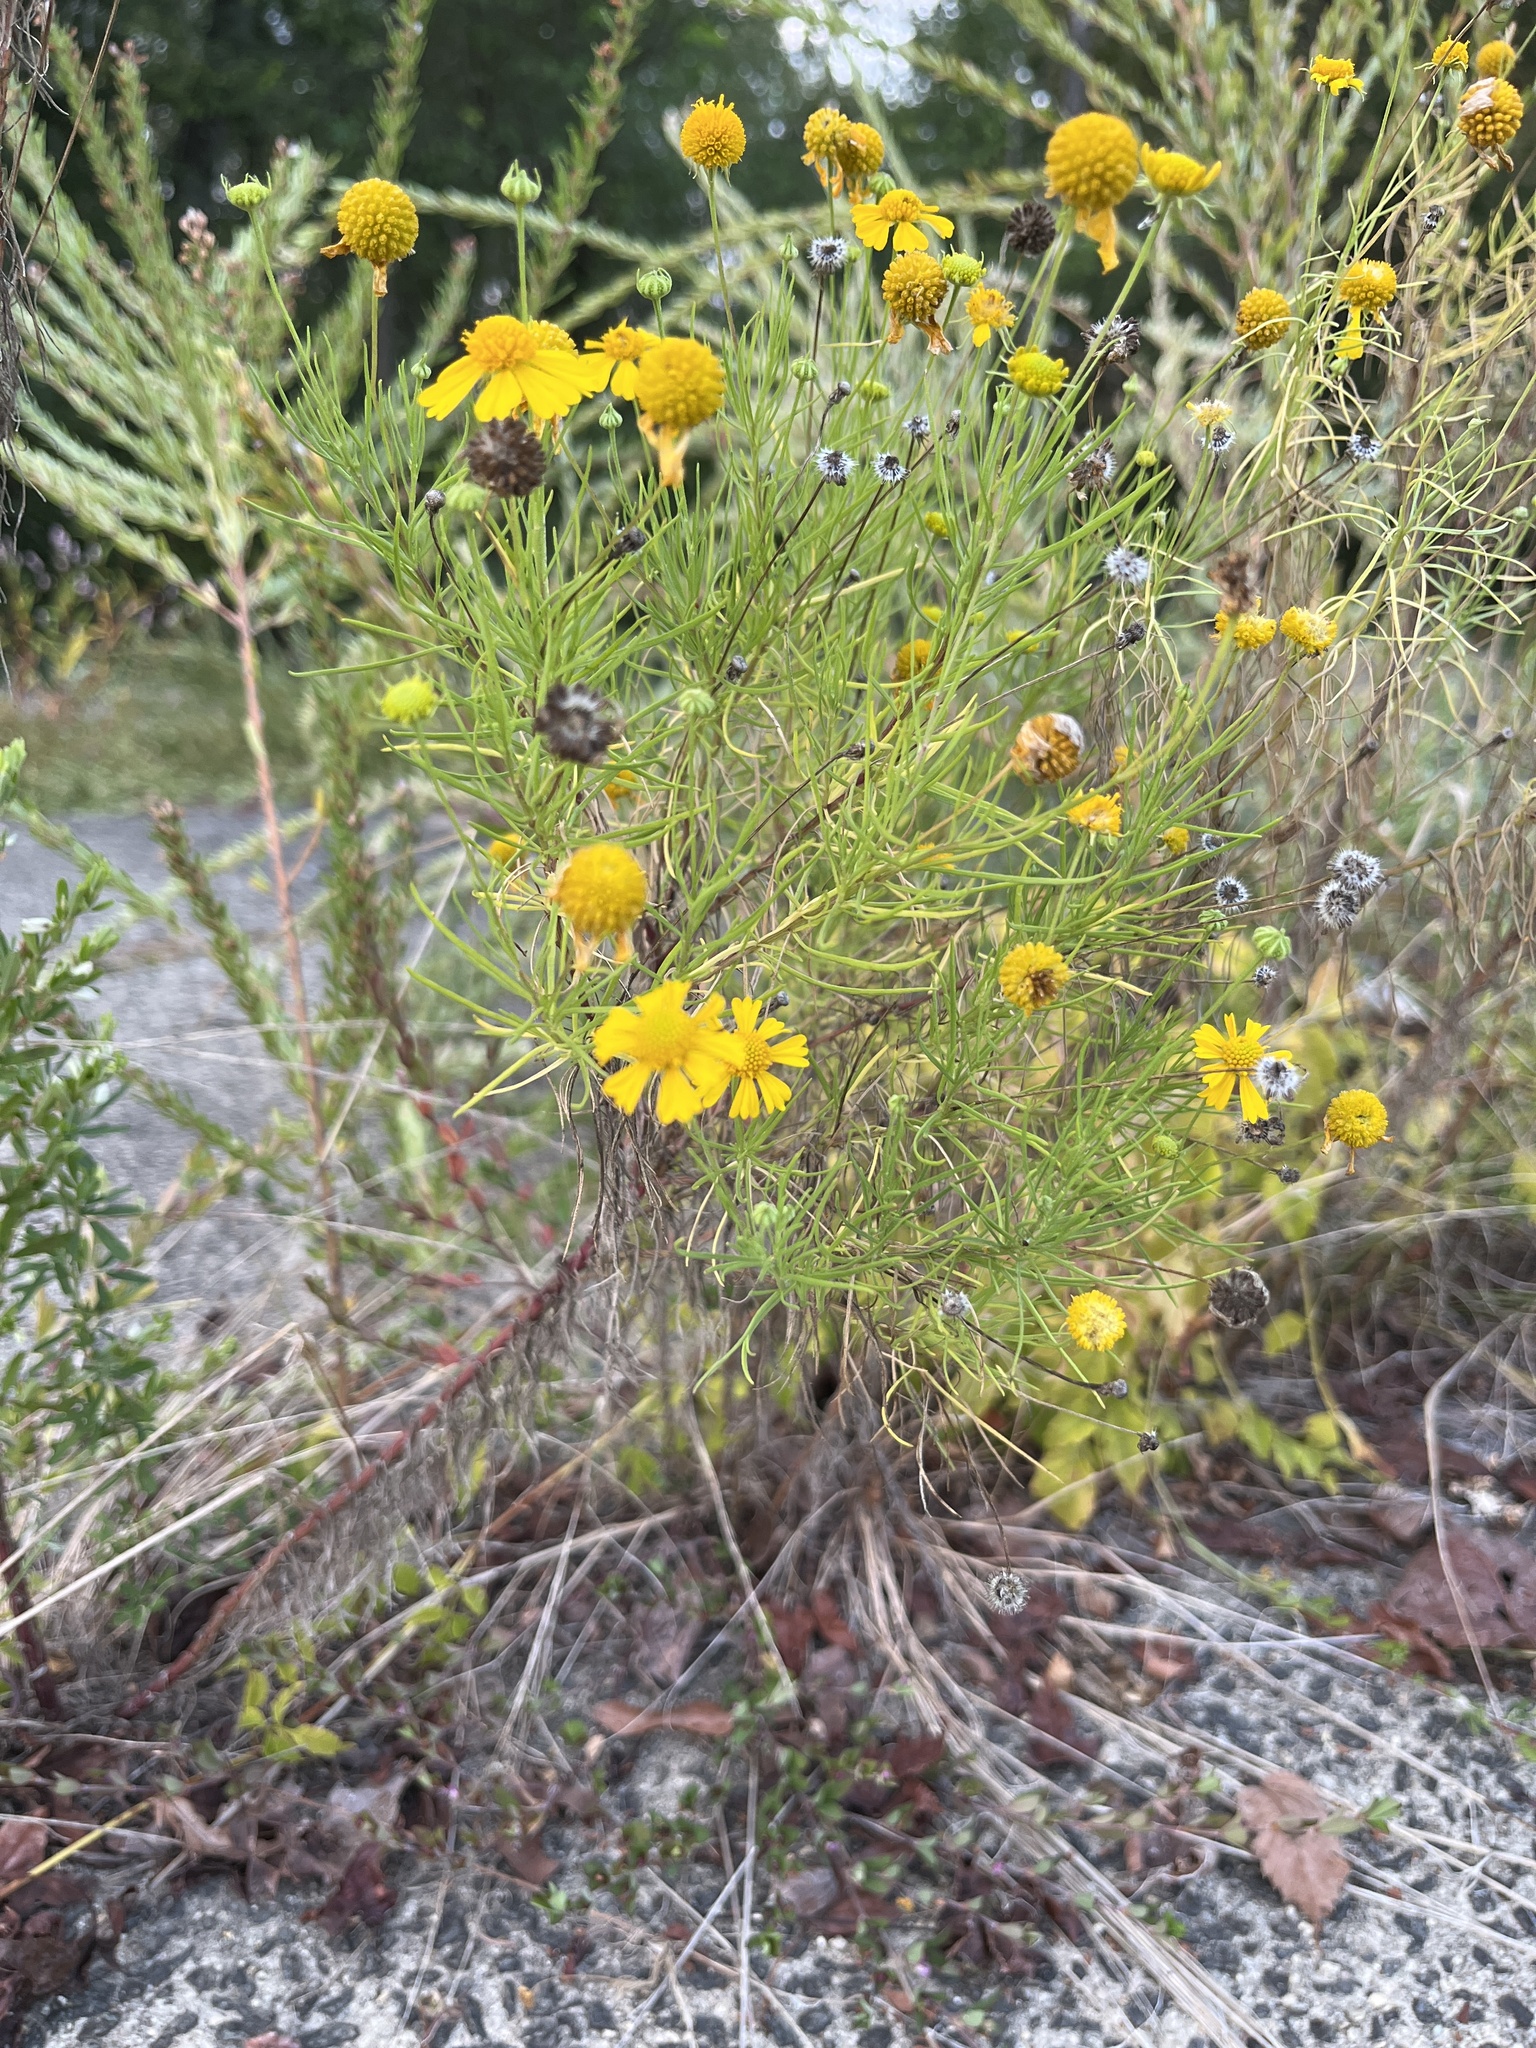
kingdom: Plantae
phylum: Tracheophyta
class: Magnoliopsida
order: Asterales
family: Asteraceae
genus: Helenium
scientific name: Helenium amarum
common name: Bitter sneezeweed
